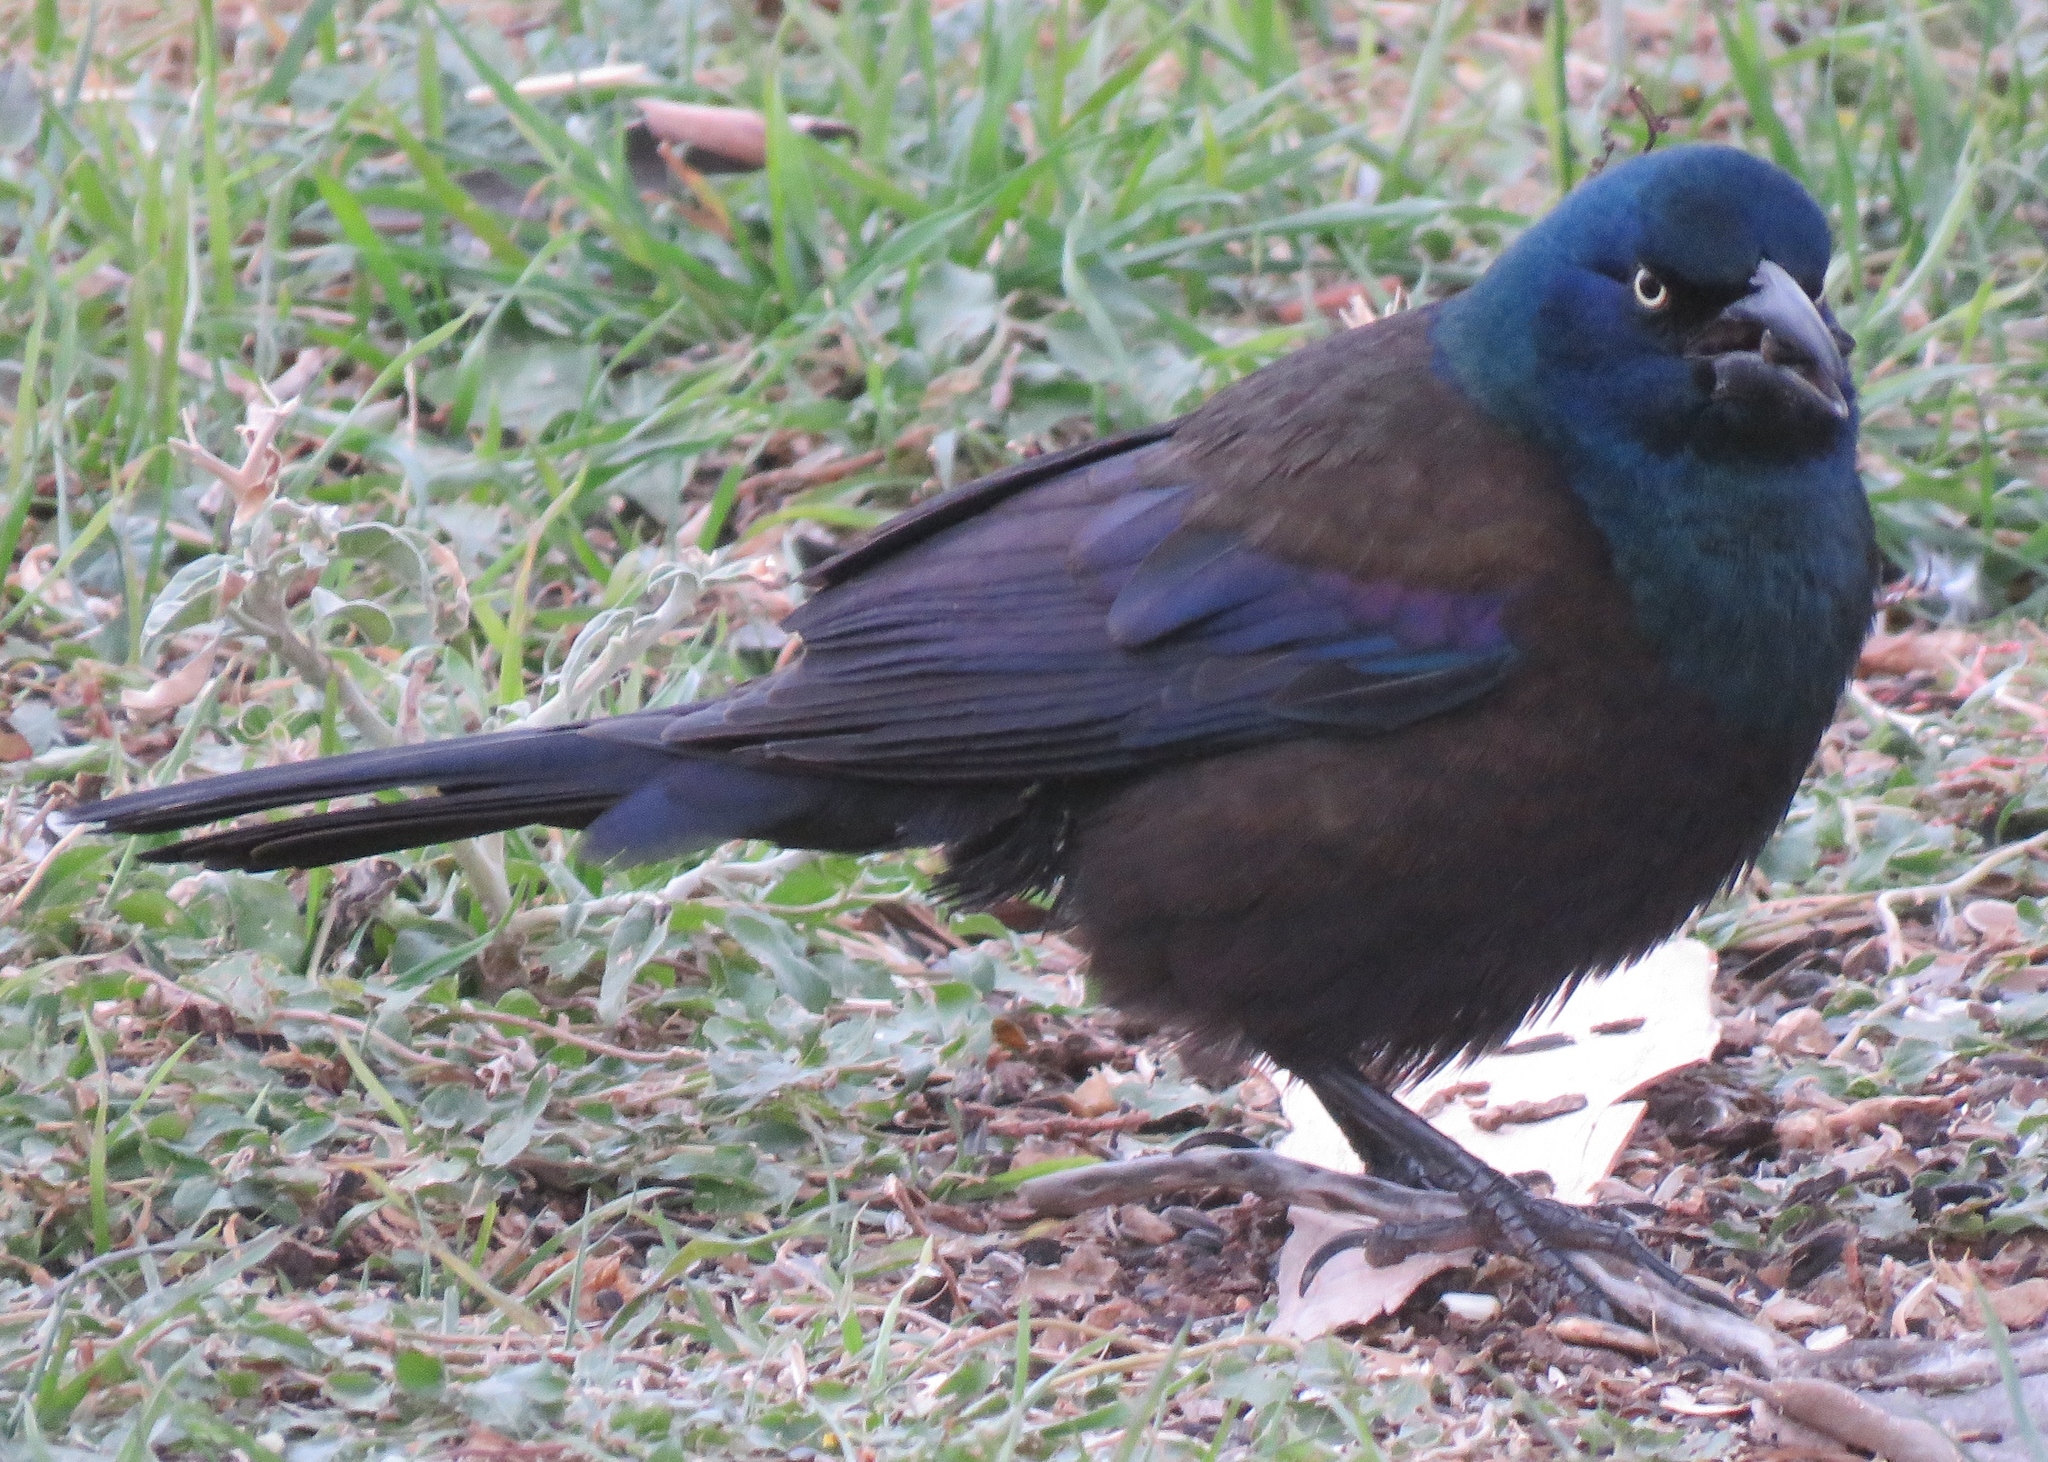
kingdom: Animalia
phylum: Chordata
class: Aves
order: Passeriformes
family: Icteridae
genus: Quiscalus
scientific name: Quiscalus quiscula
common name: Common grackle
